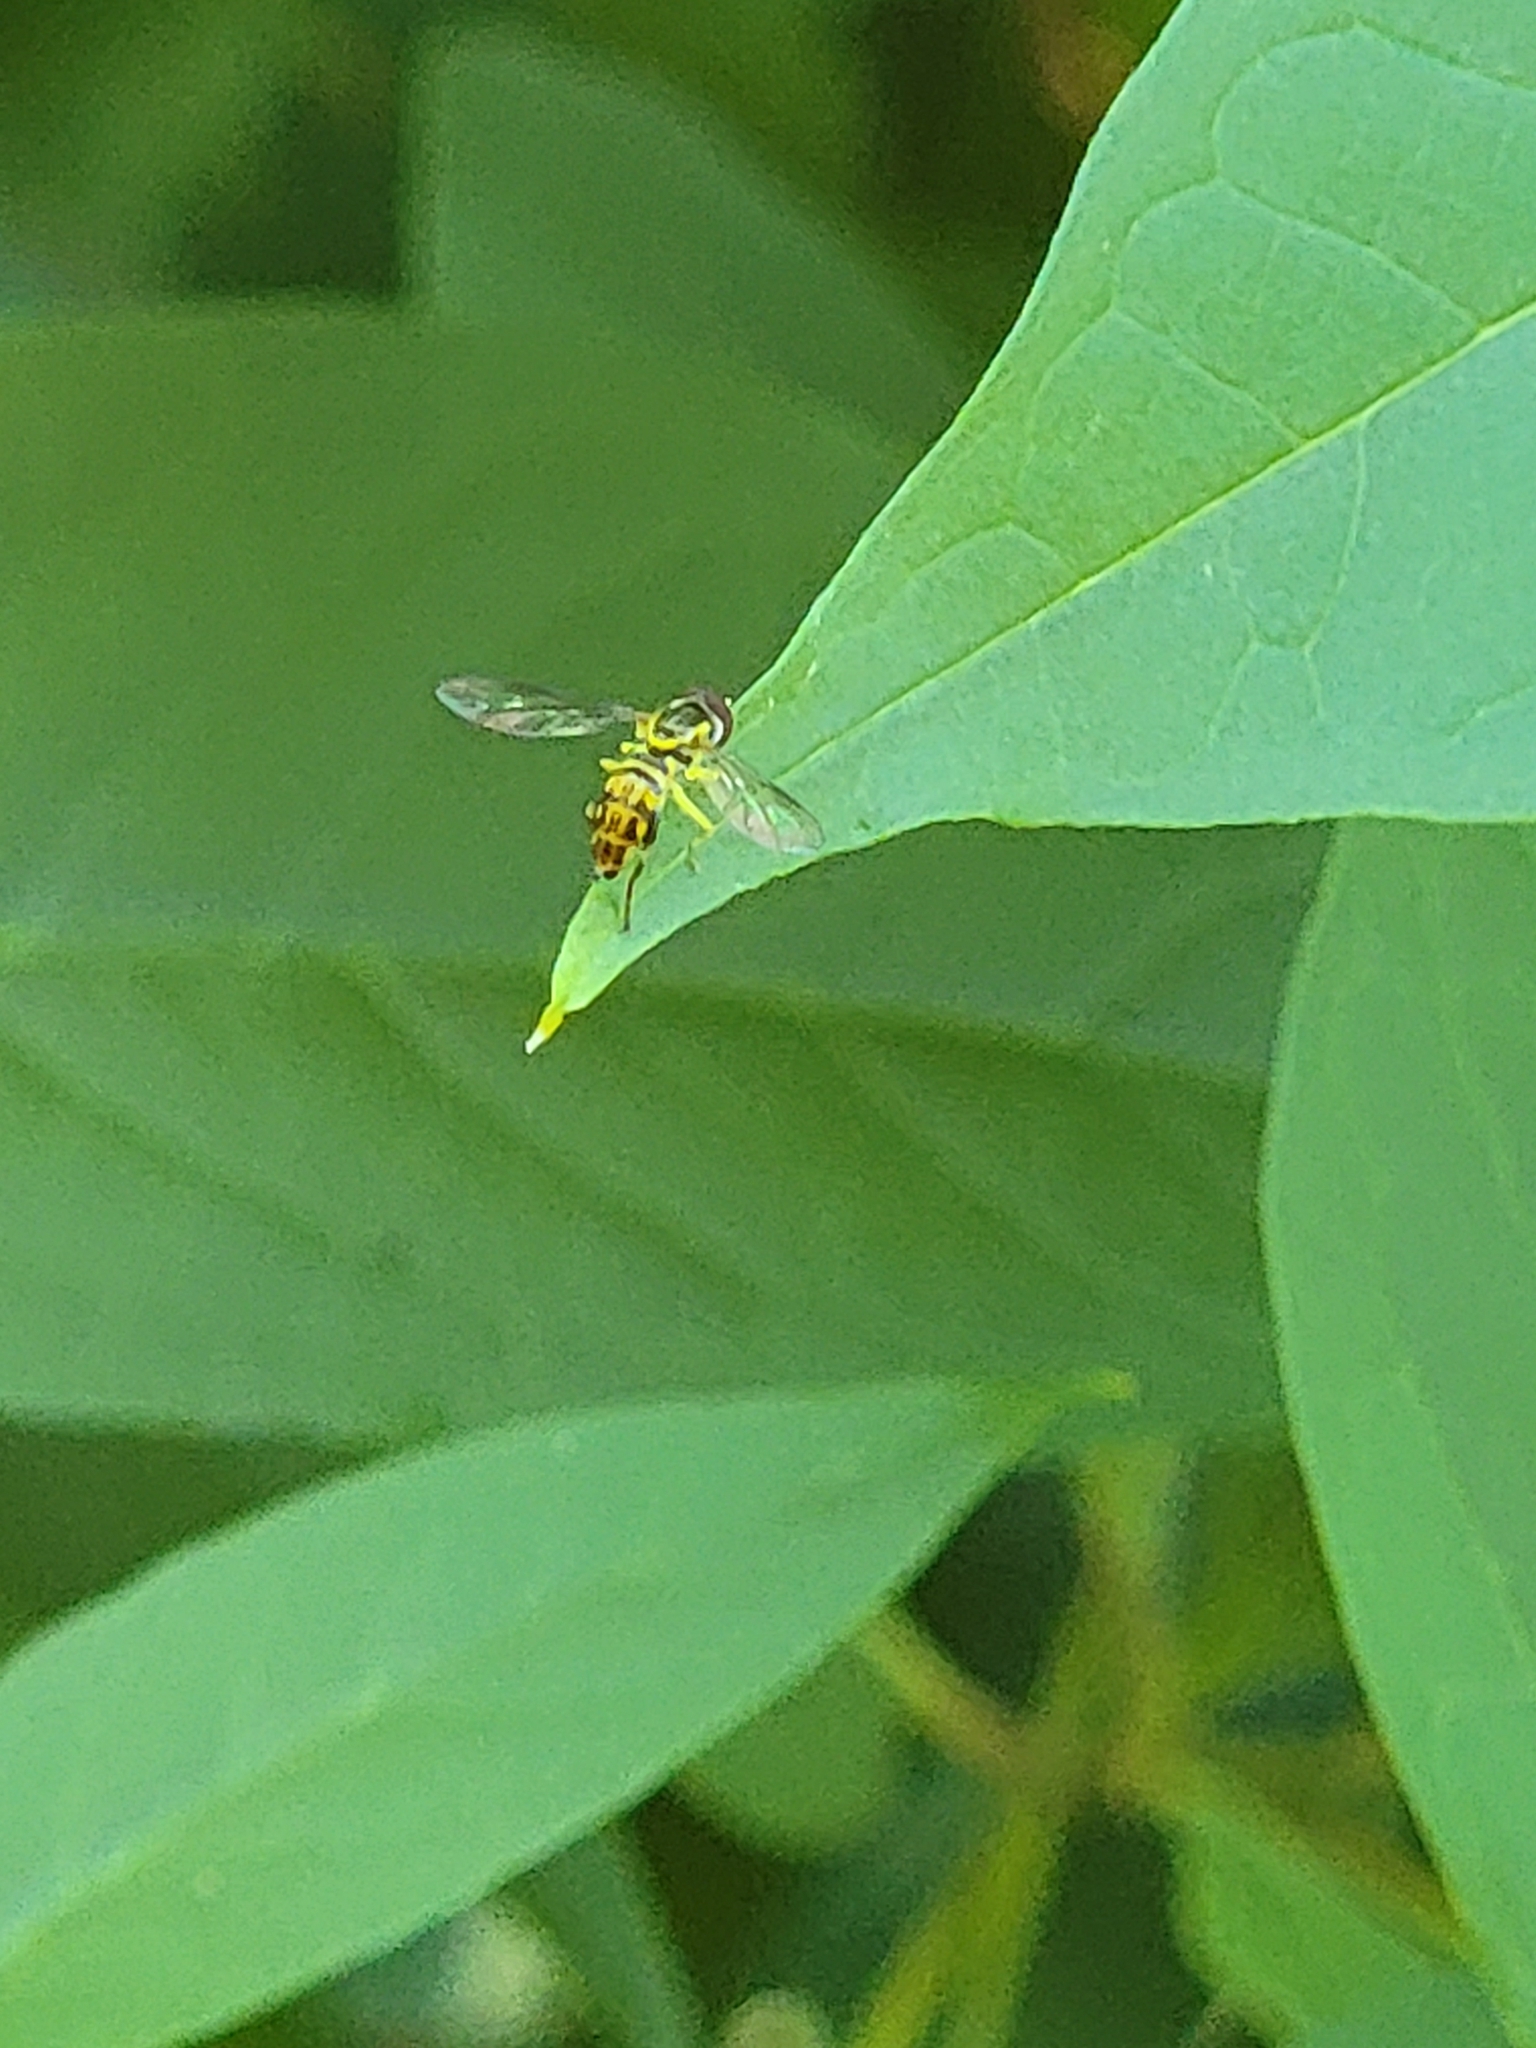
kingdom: Animalia
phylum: Arthropoda
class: Insecta
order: Diptera
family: Syrphidae
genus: Toxomerus
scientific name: Toxomerus geminatus
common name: Eastern calligrapher
